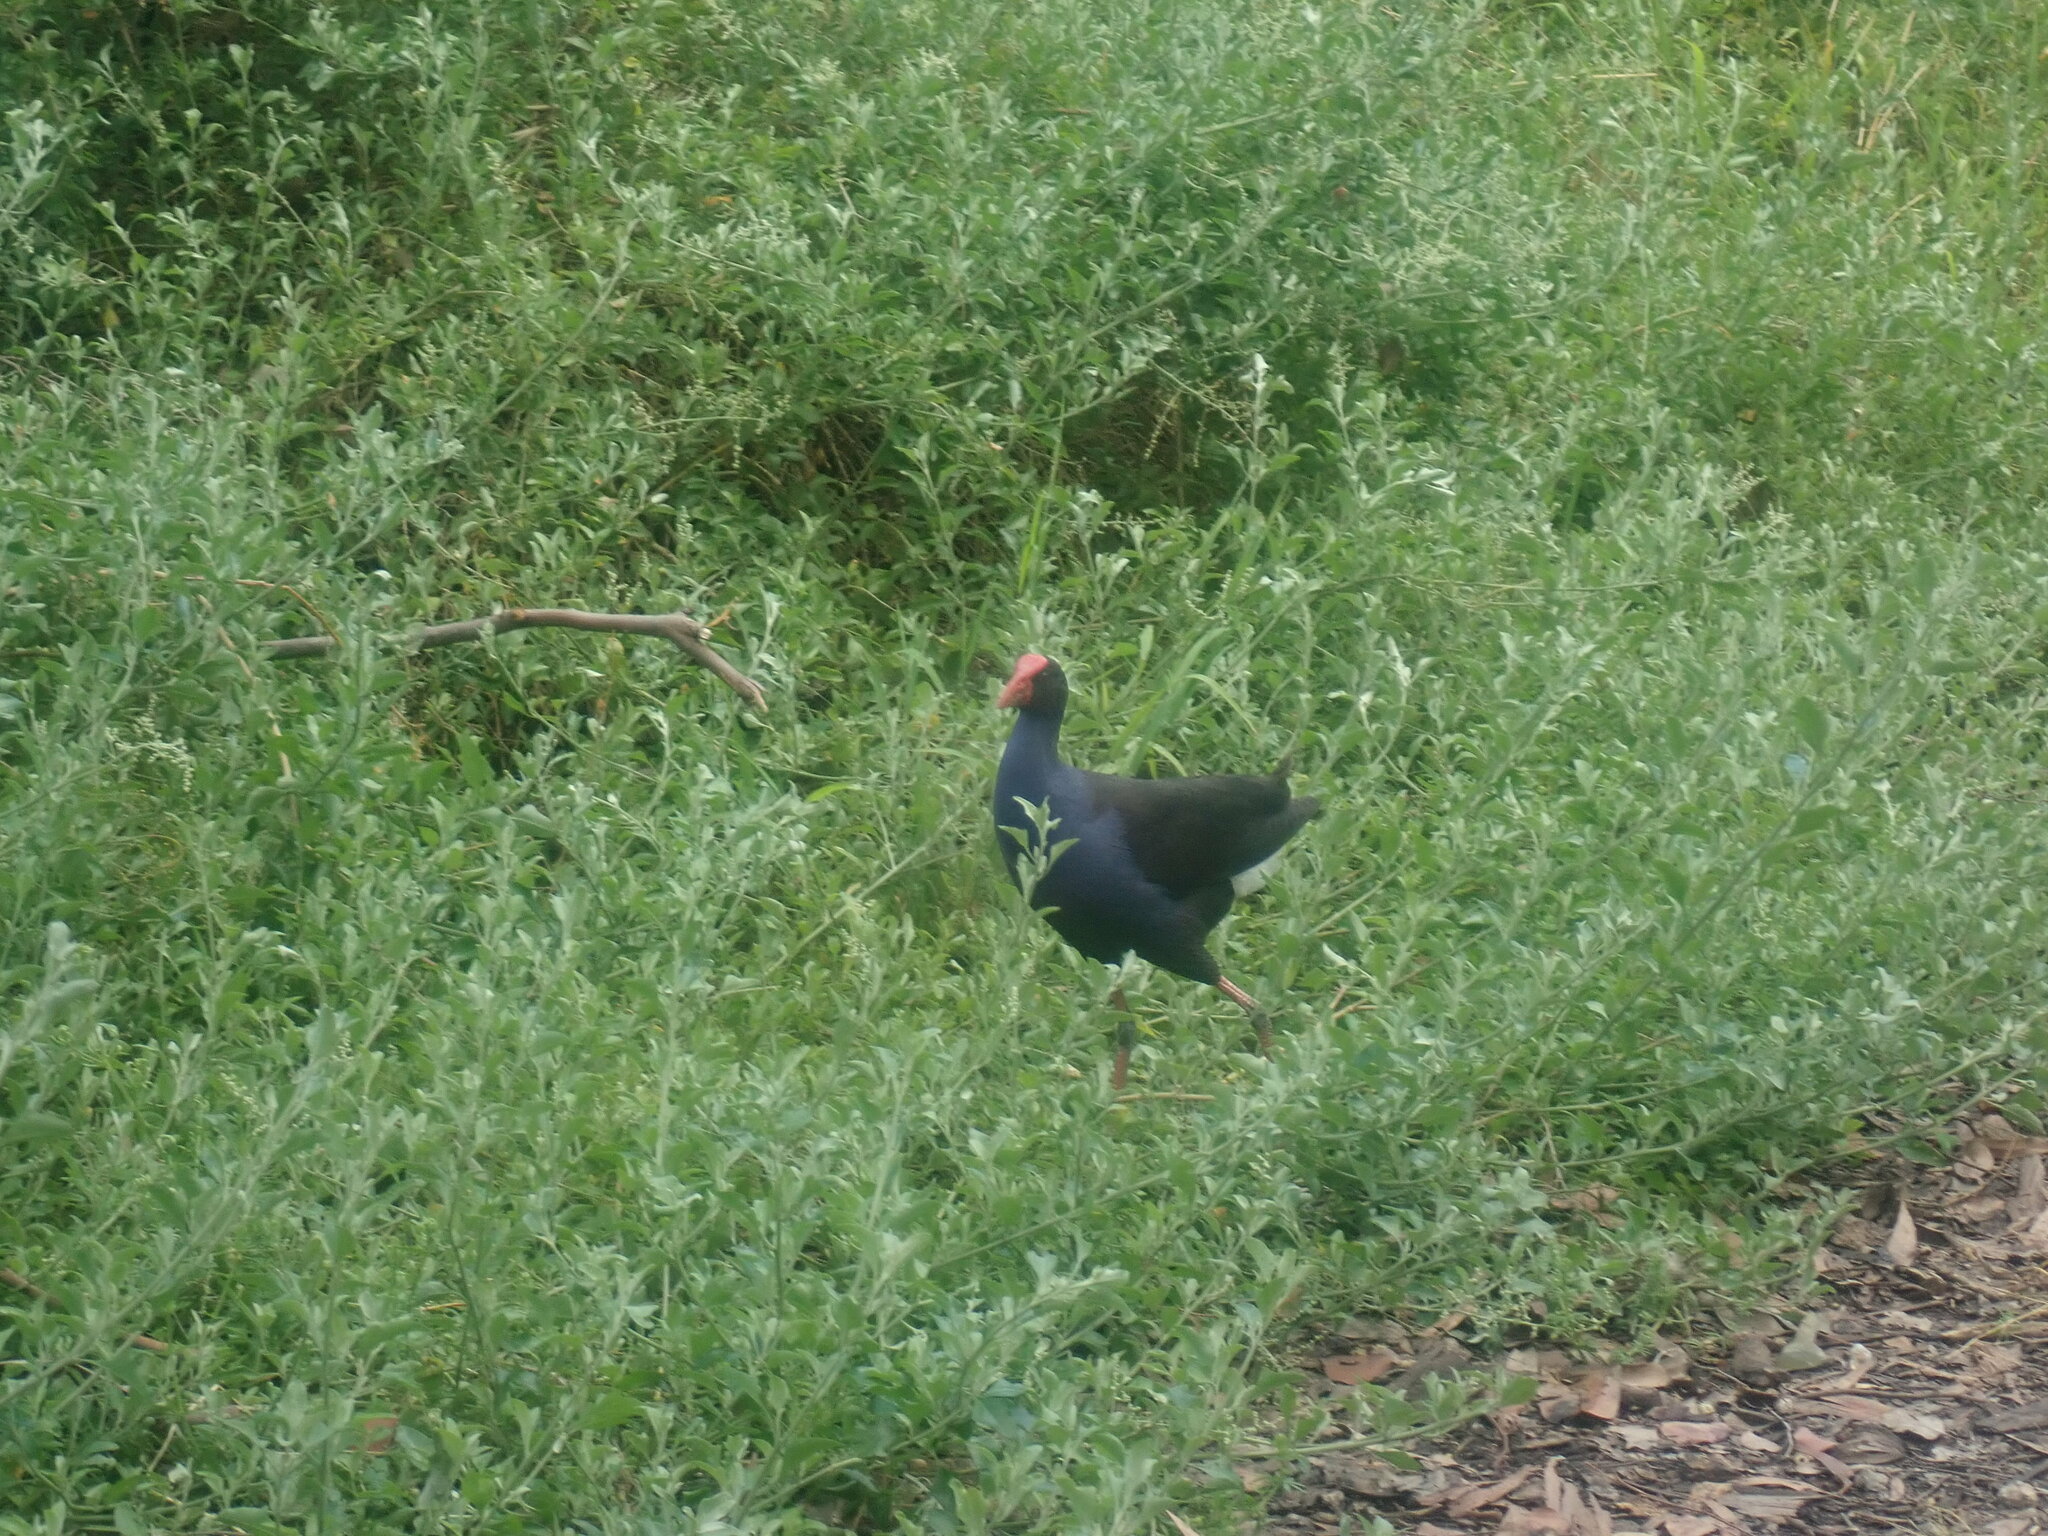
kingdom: Animalia
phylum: Chordata
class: Aves
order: Gruiformes
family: Rallidae
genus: Porphyrio
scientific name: Porphyrio melanotus
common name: Australasian swamphen
